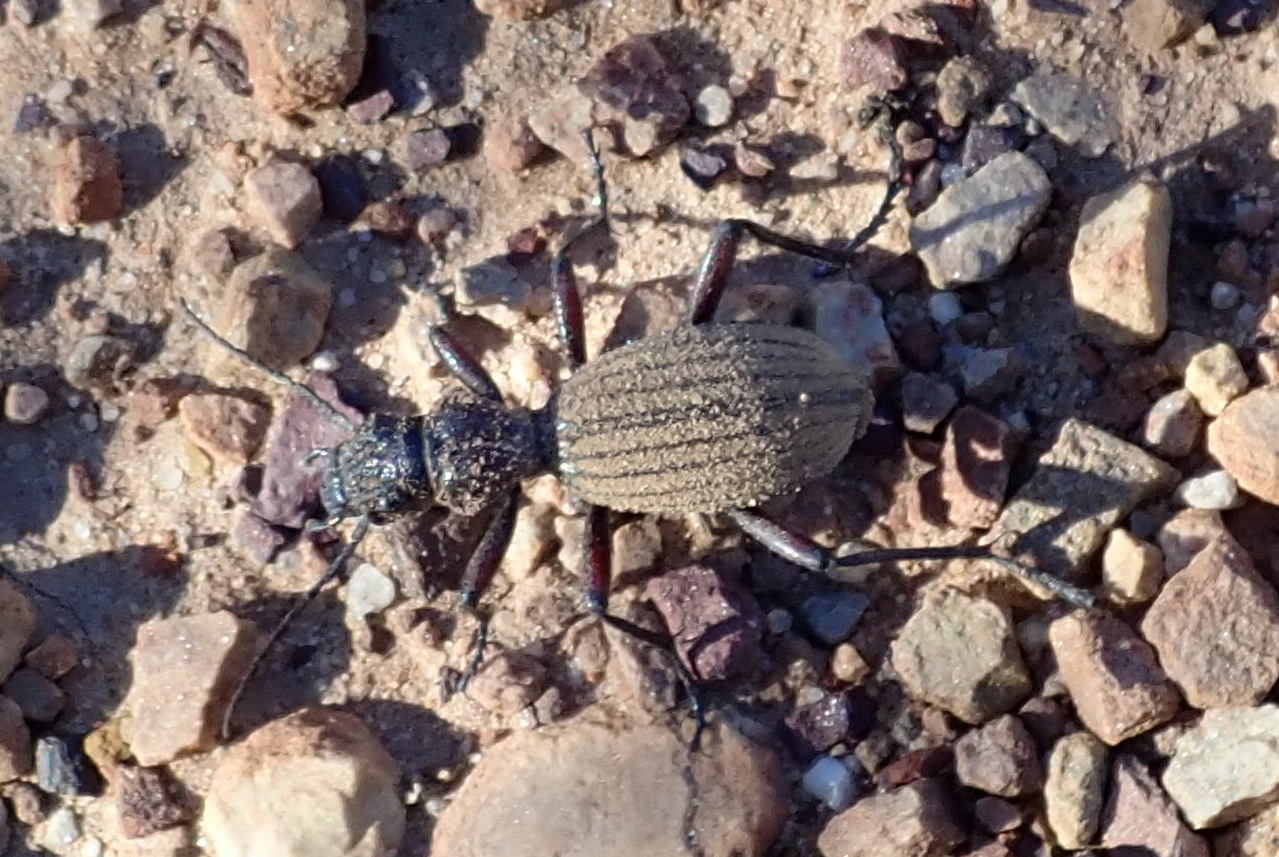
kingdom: Animalia
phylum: Arthropoda
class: Insecta
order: Coleoptera
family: Carabidae
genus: Baeoglossa
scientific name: Baeoglossa villosa
